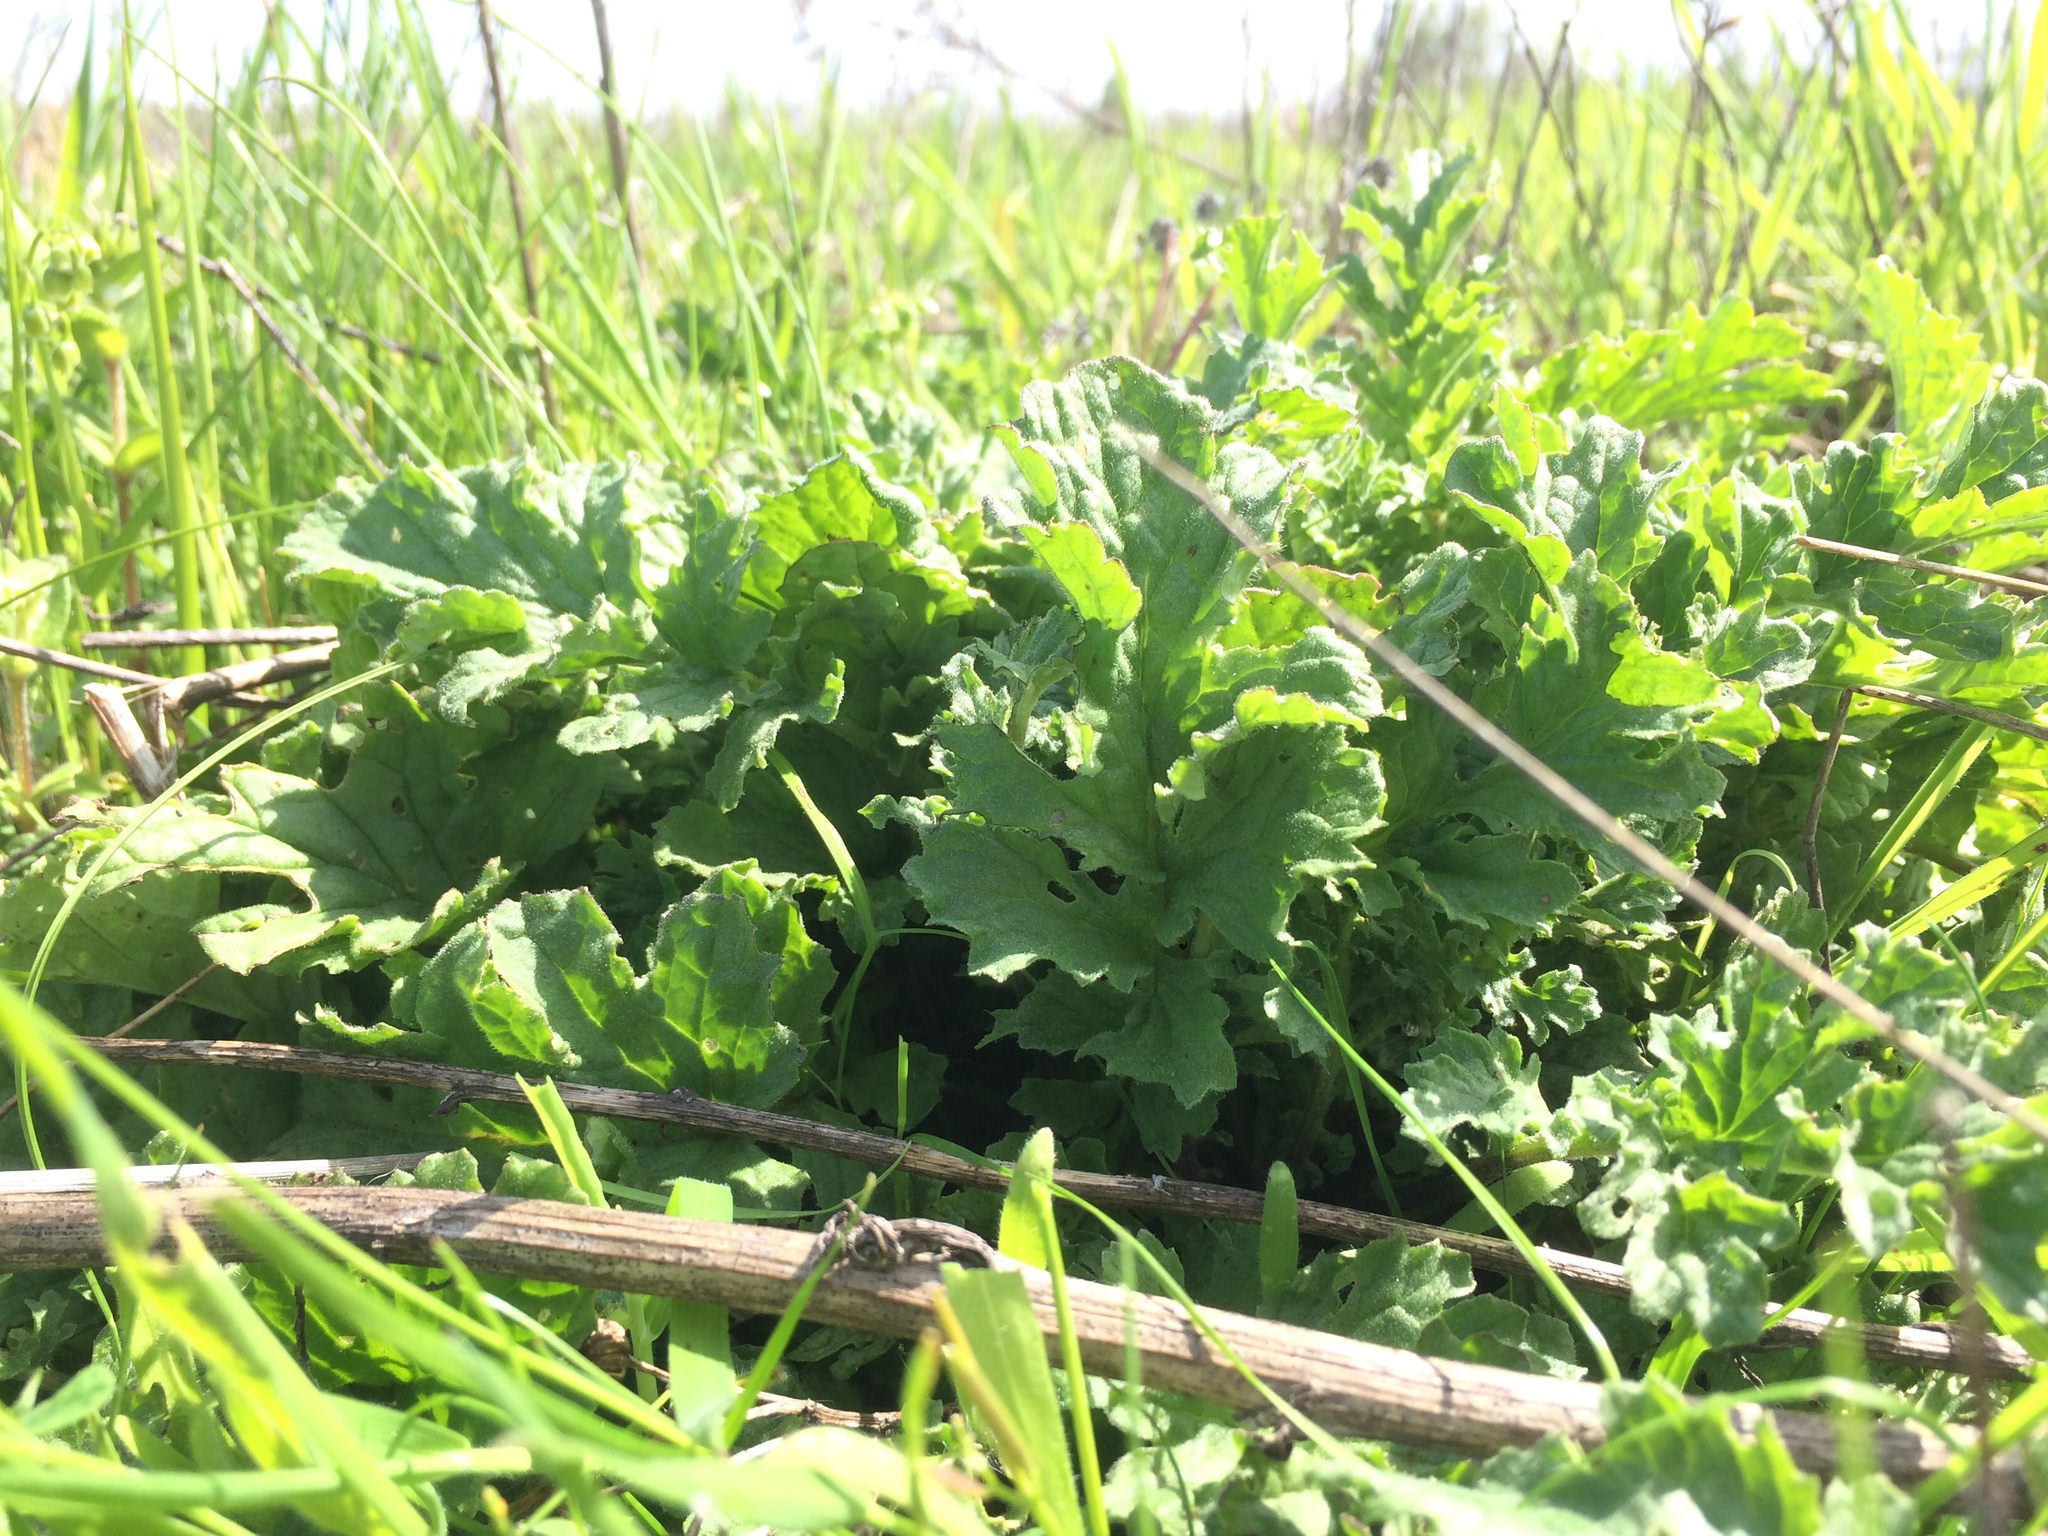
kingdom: Plantae
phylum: Tracheophyta
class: Magnoliopsida
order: Apiales
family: Apiaceae
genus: Heracleum
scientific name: Heracleum maximum
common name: American cow parsnip
